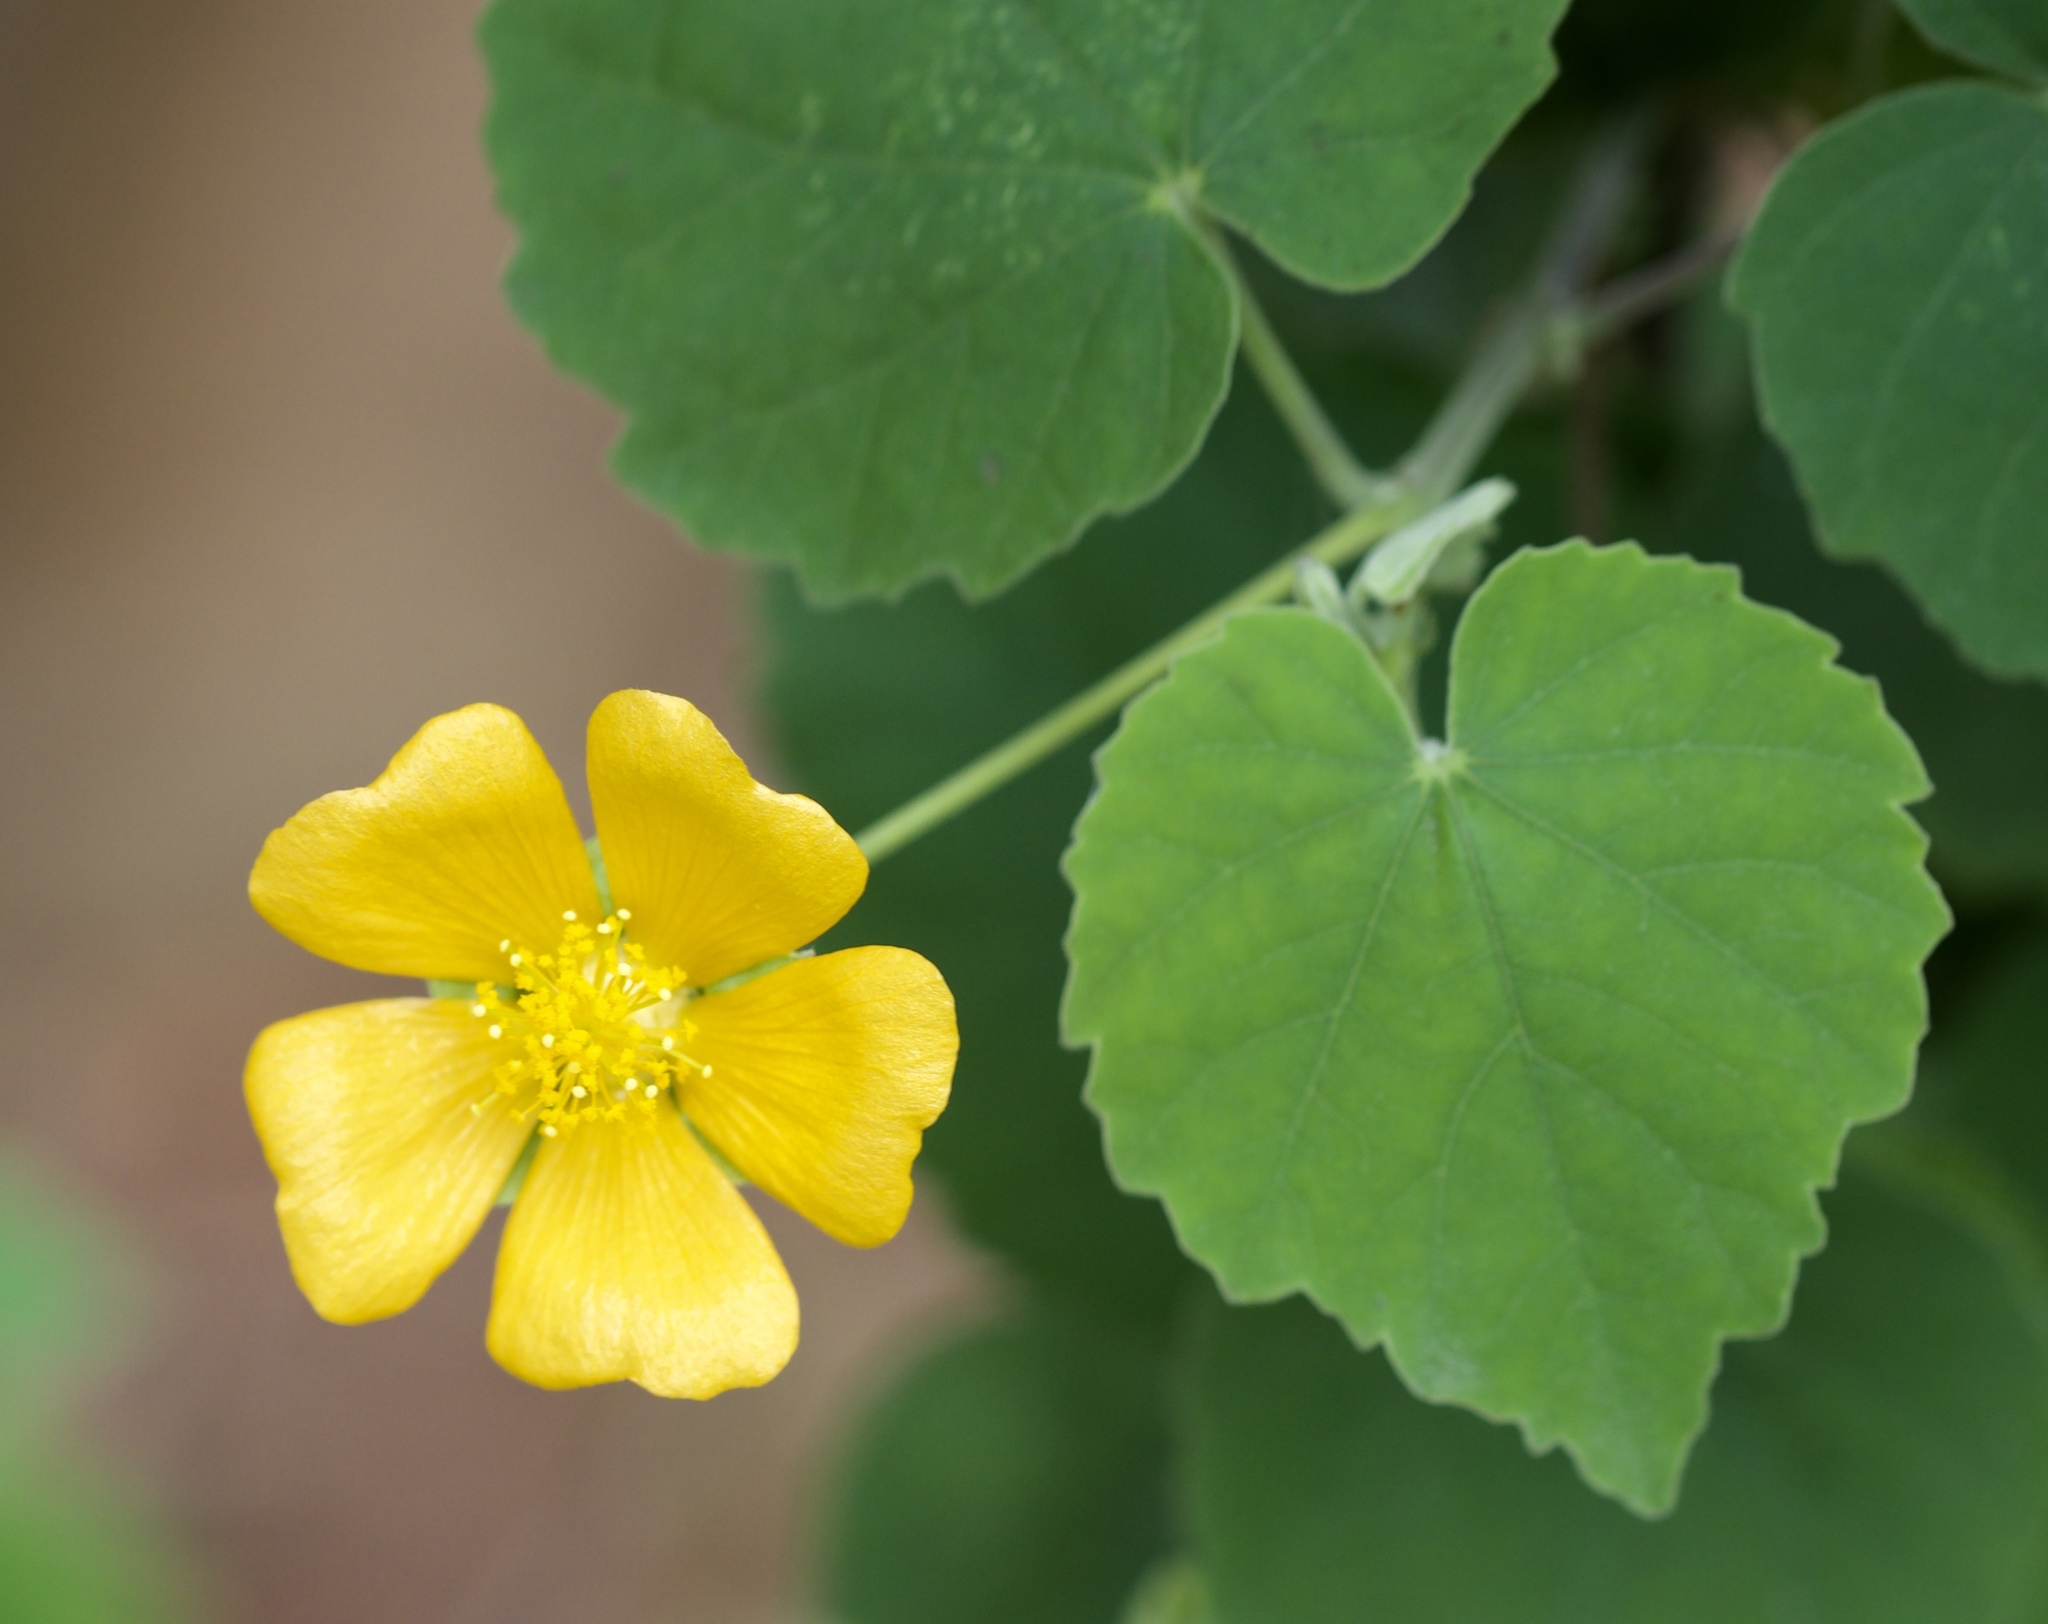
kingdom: Plantae
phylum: Tracheophyta
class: Magnoliopsida
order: Malvales
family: Malvaceae
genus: Abutilon
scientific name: Abutilon indicum
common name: Indian abutilon
